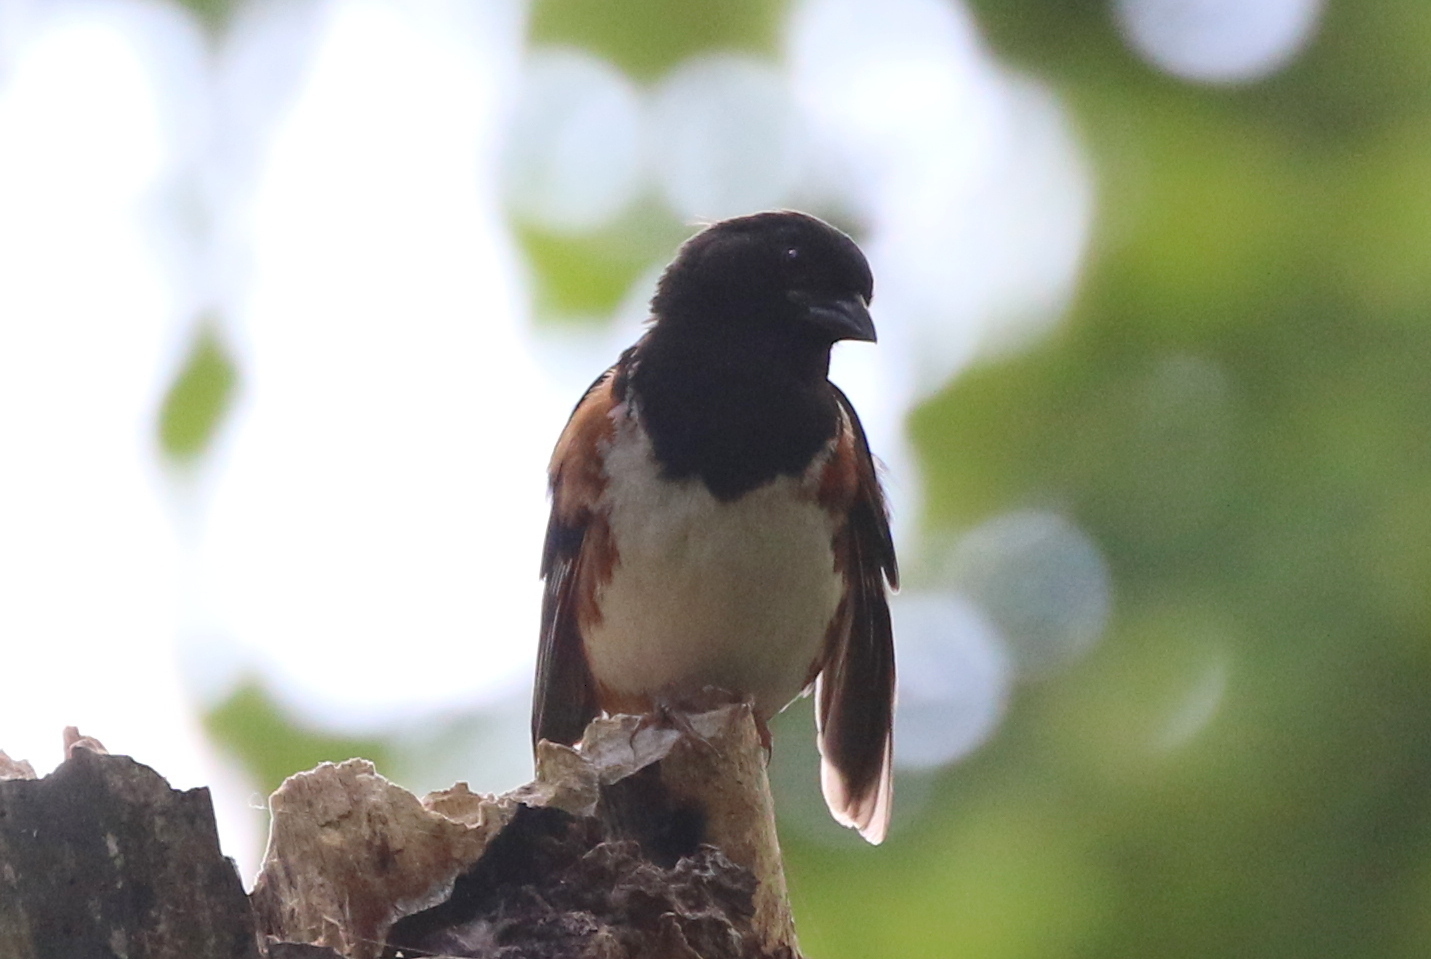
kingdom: Animalia
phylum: Chordata
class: Aves
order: Passeriformes
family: Passerellidae
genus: Pipilo
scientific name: Pipilo erythrophthalmus
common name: Eastern towhee
